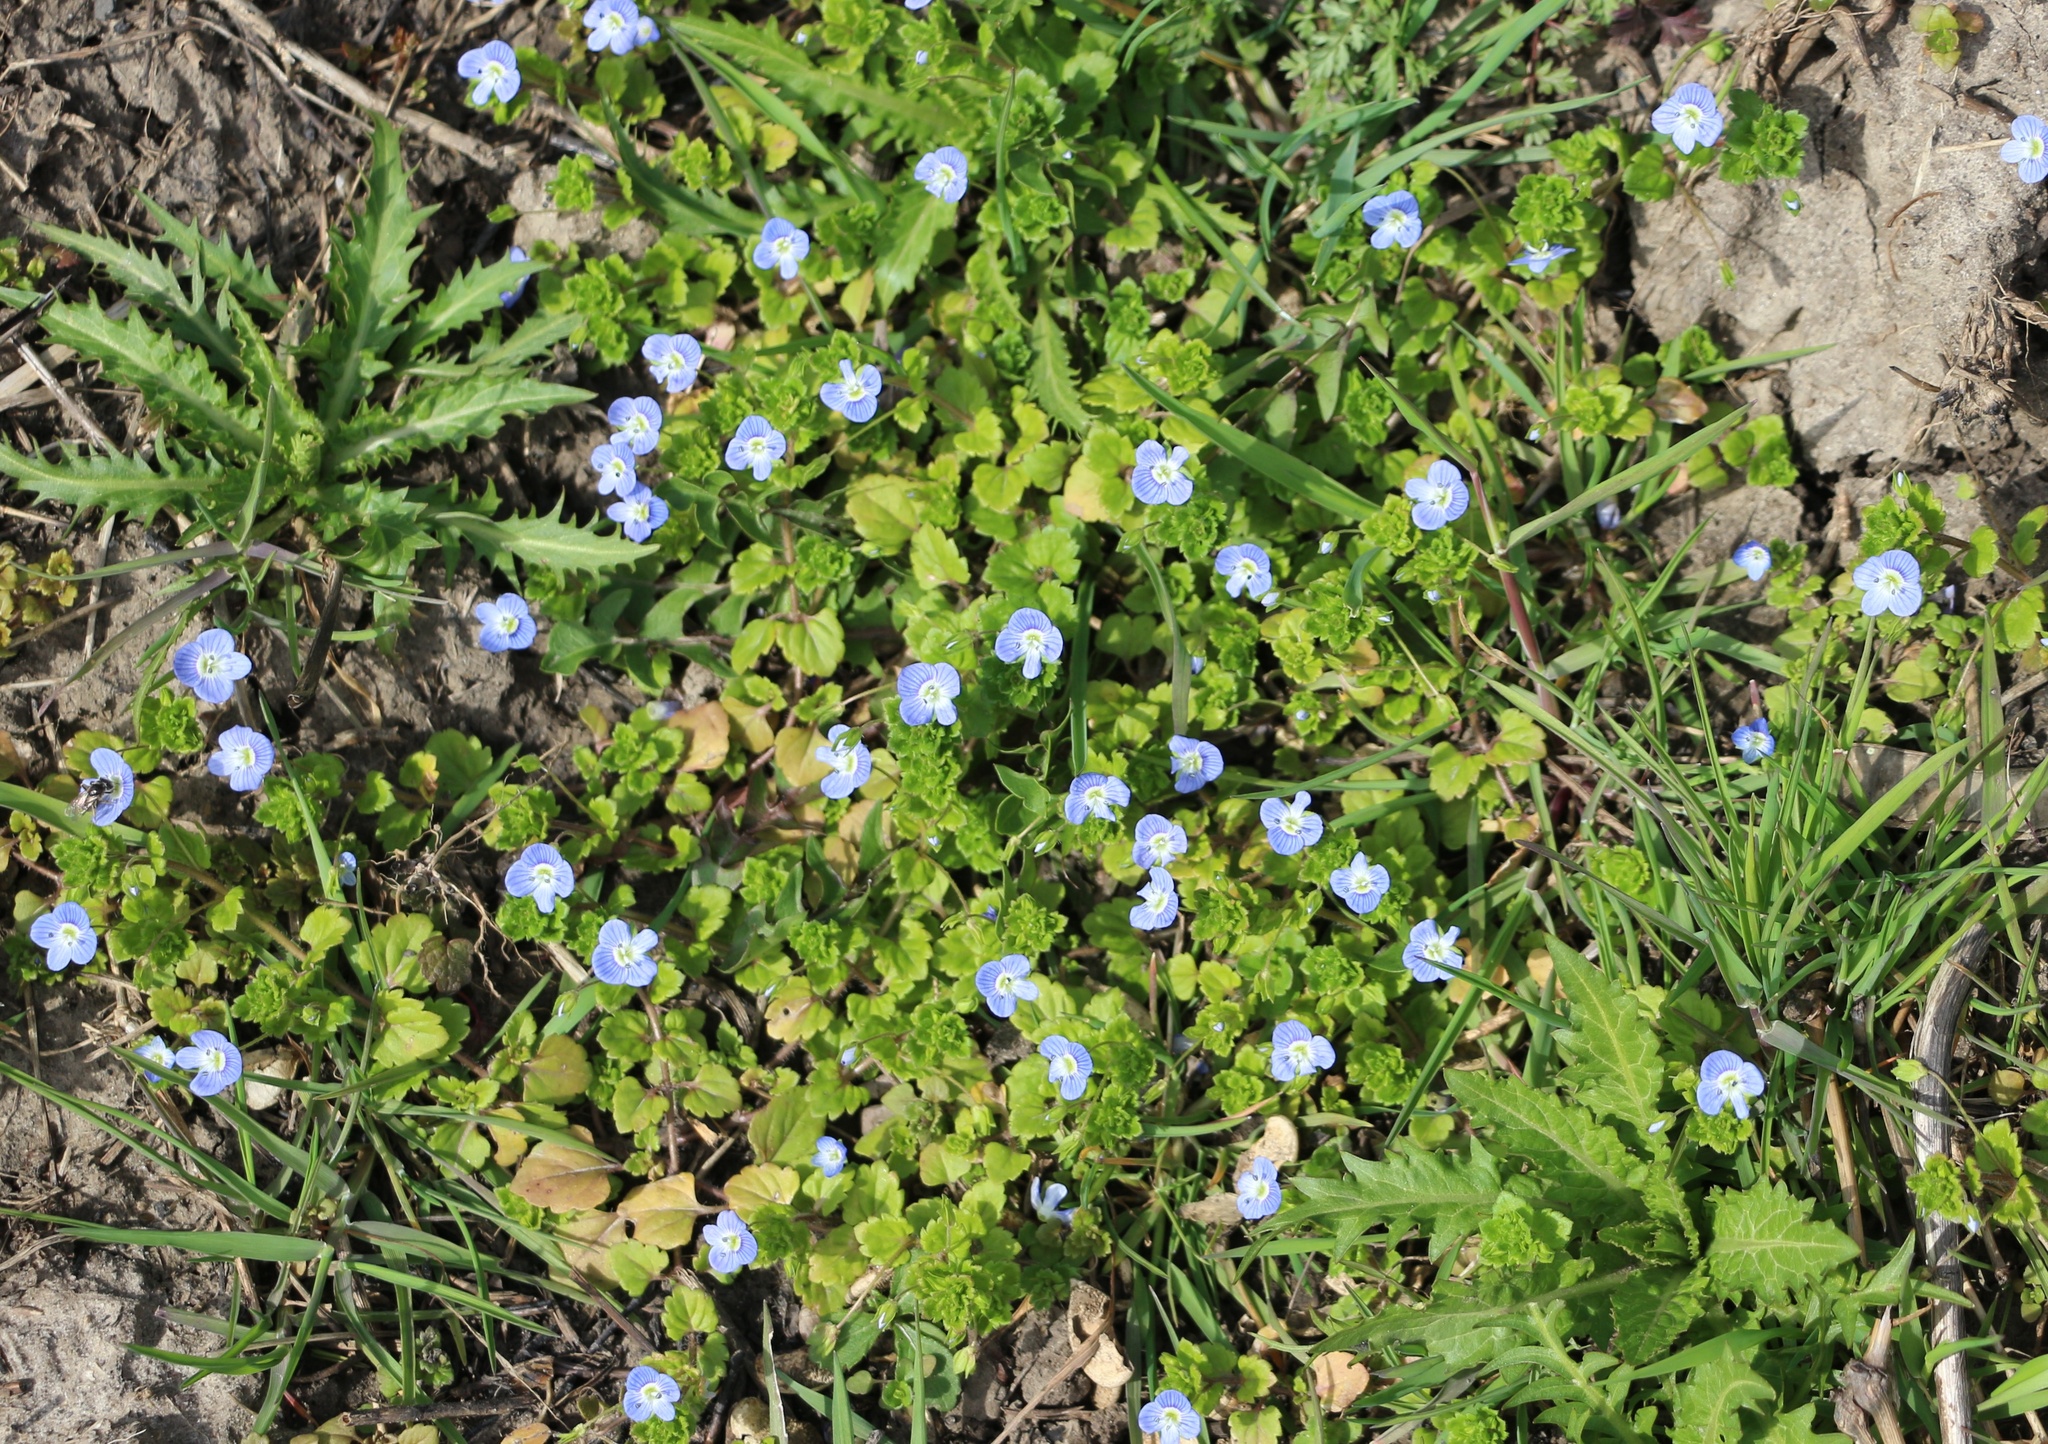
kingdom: Plantae
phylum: Tracheophyta
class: Magnoliopsida
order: Lamiales
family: Plantaginaceae
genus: Veronica
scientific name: Veronica persica
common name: Common field-speedwell
